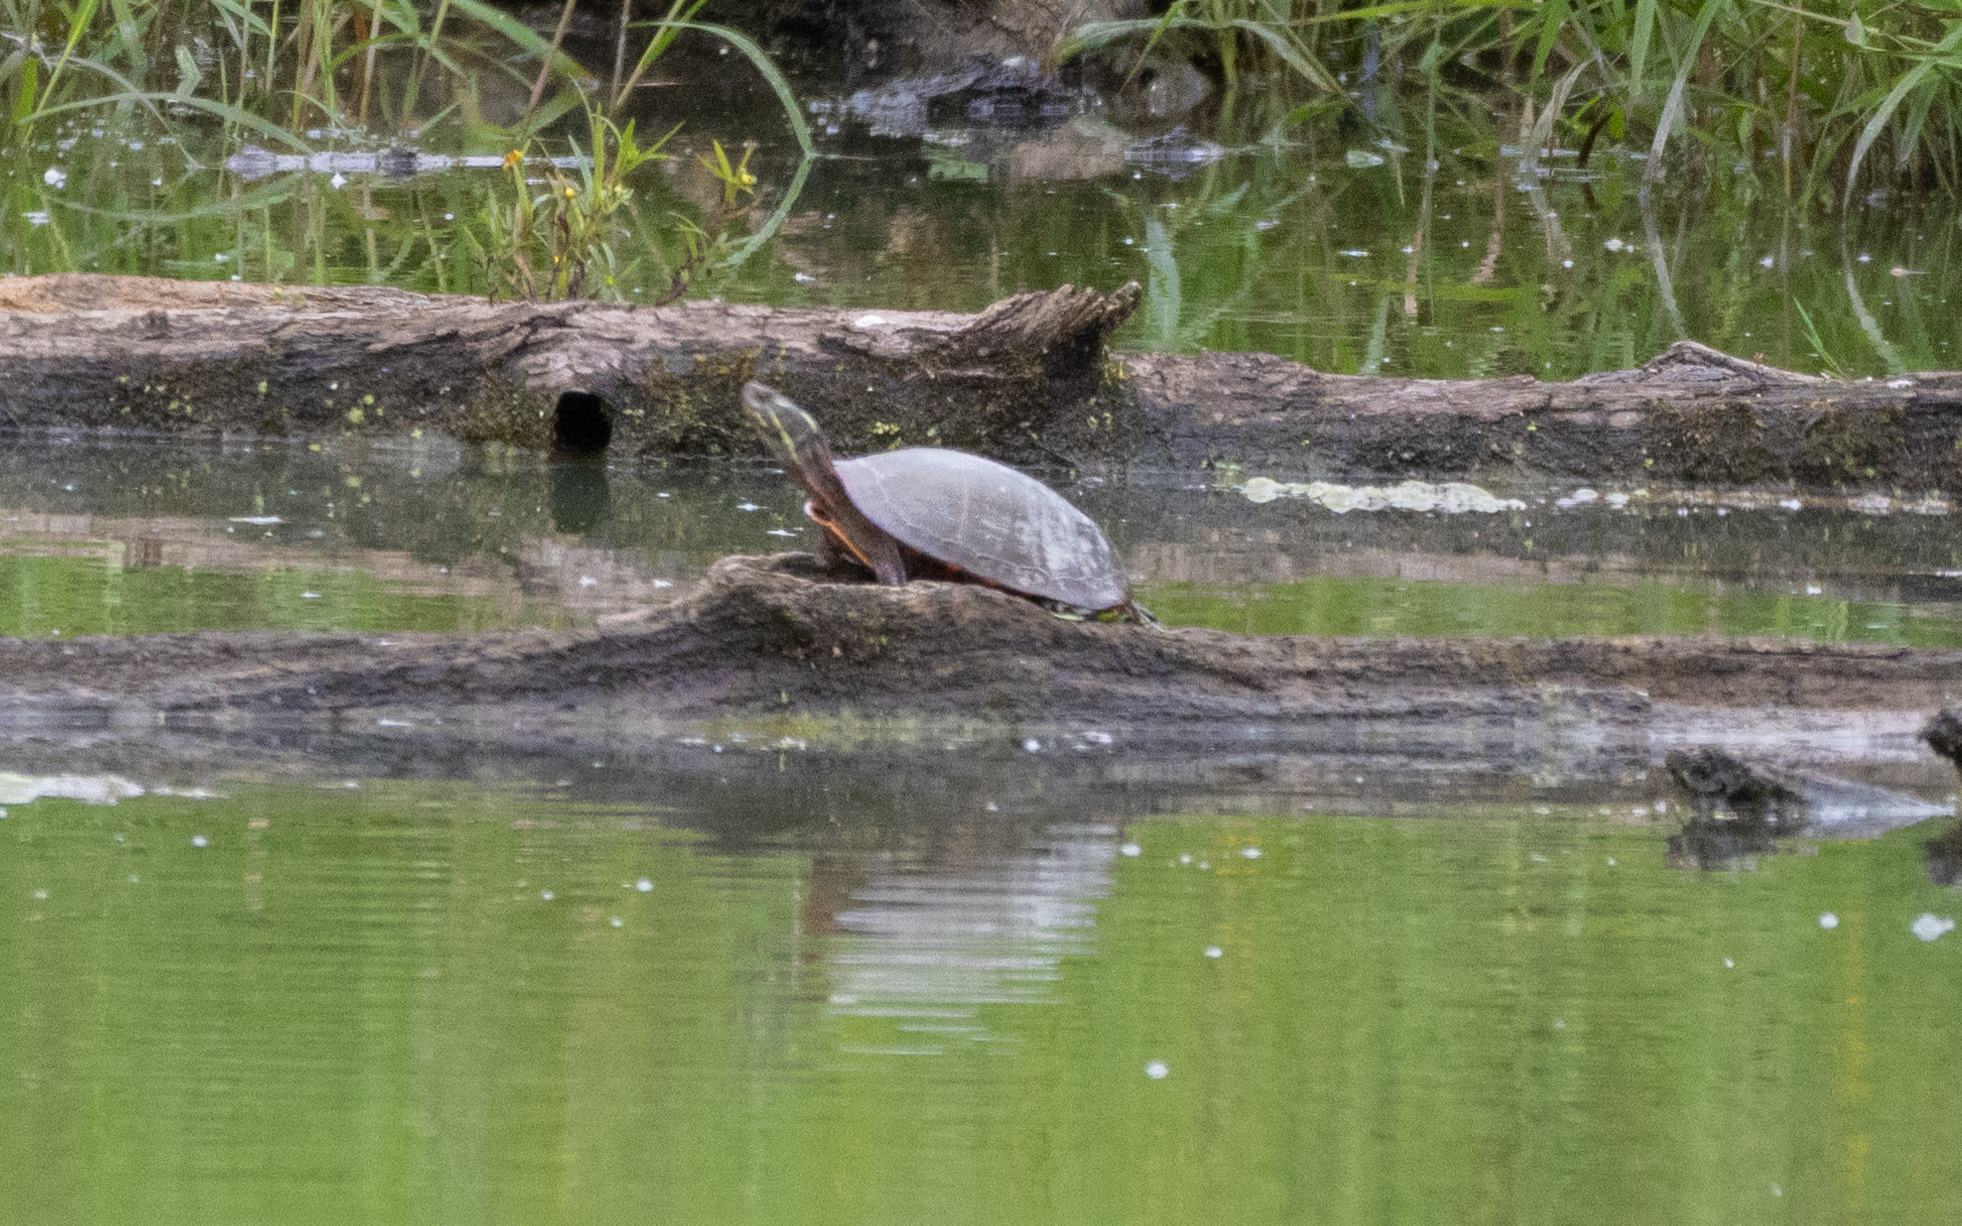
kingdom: Animalia
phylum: Chordata
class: Testudines
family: Emydidae
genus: Chrysemys
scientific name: Chrysemys picta
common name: Painted turtle
